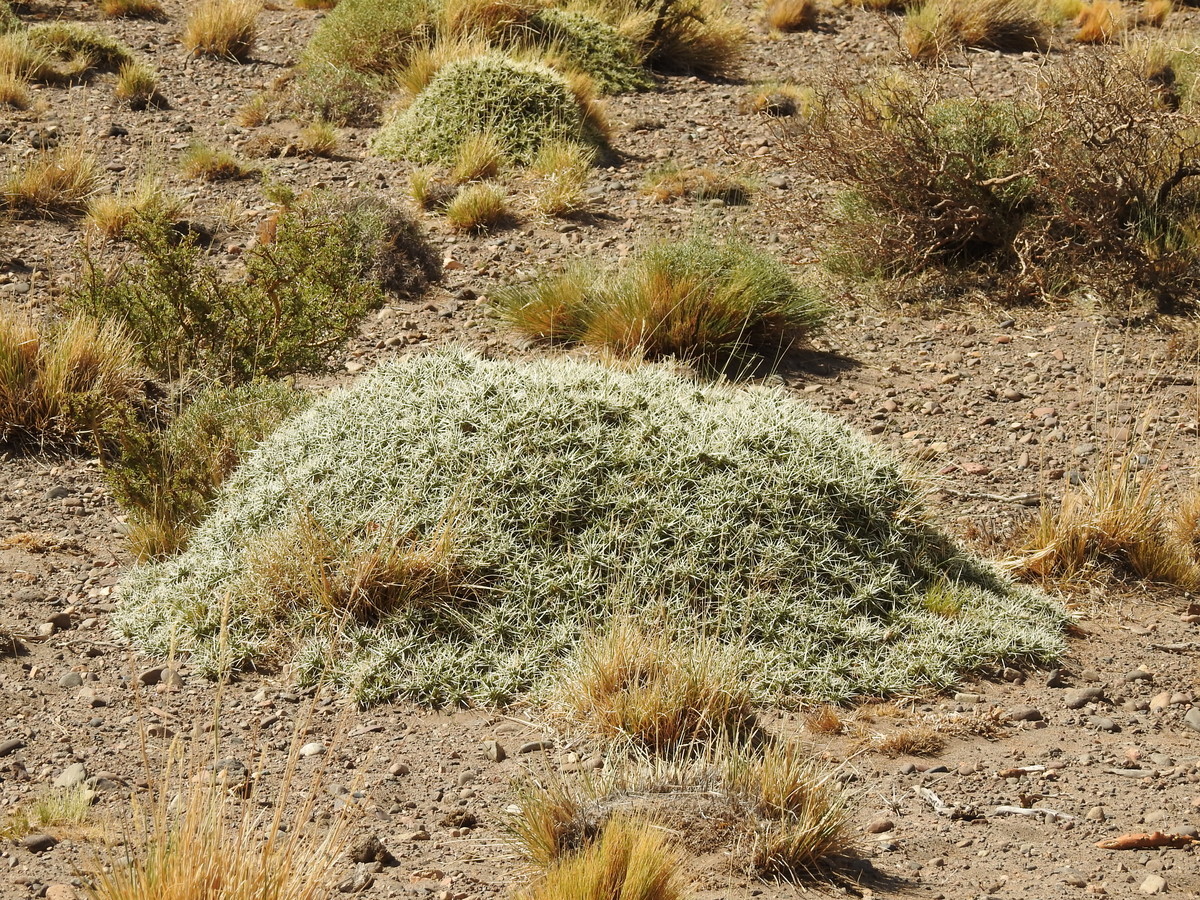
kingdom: Plantae
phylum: Tracheophyta
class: Magnoliopsida
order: Caryophyllales
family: Cactaceae
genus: Maihuenia
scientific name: Maihuenia patagonica
